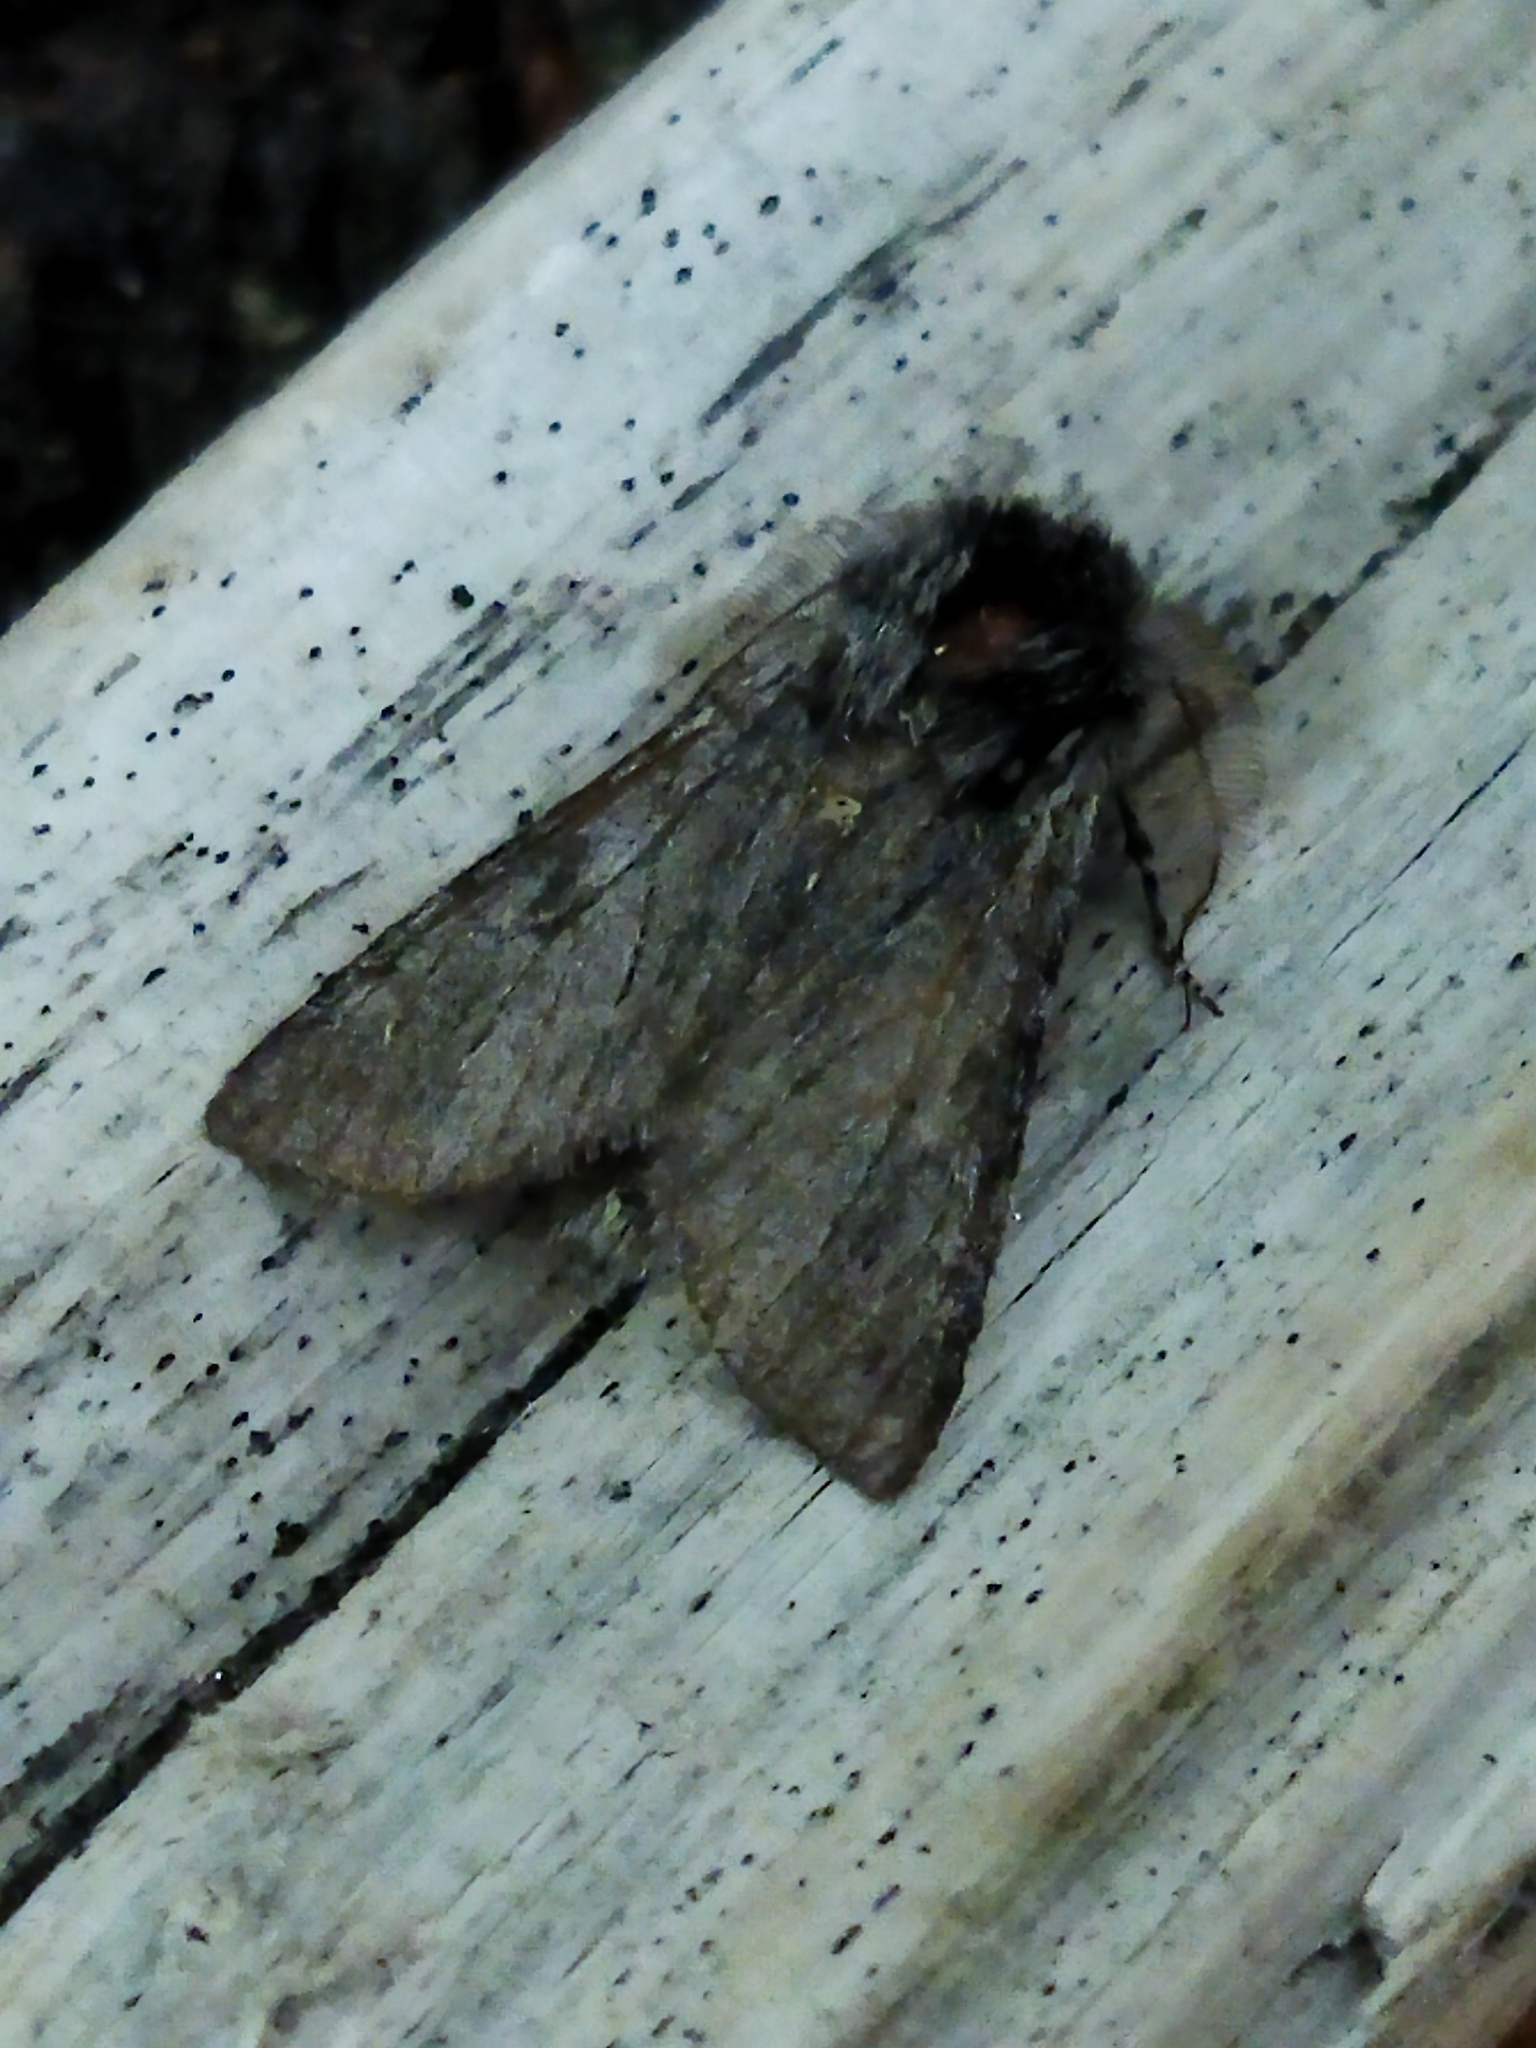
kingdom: Animalia
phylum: Arthropoda
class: Insecta
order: Lepidoptera
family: Notodontidae
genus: Dicranura
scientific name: Dicranura ulmi
